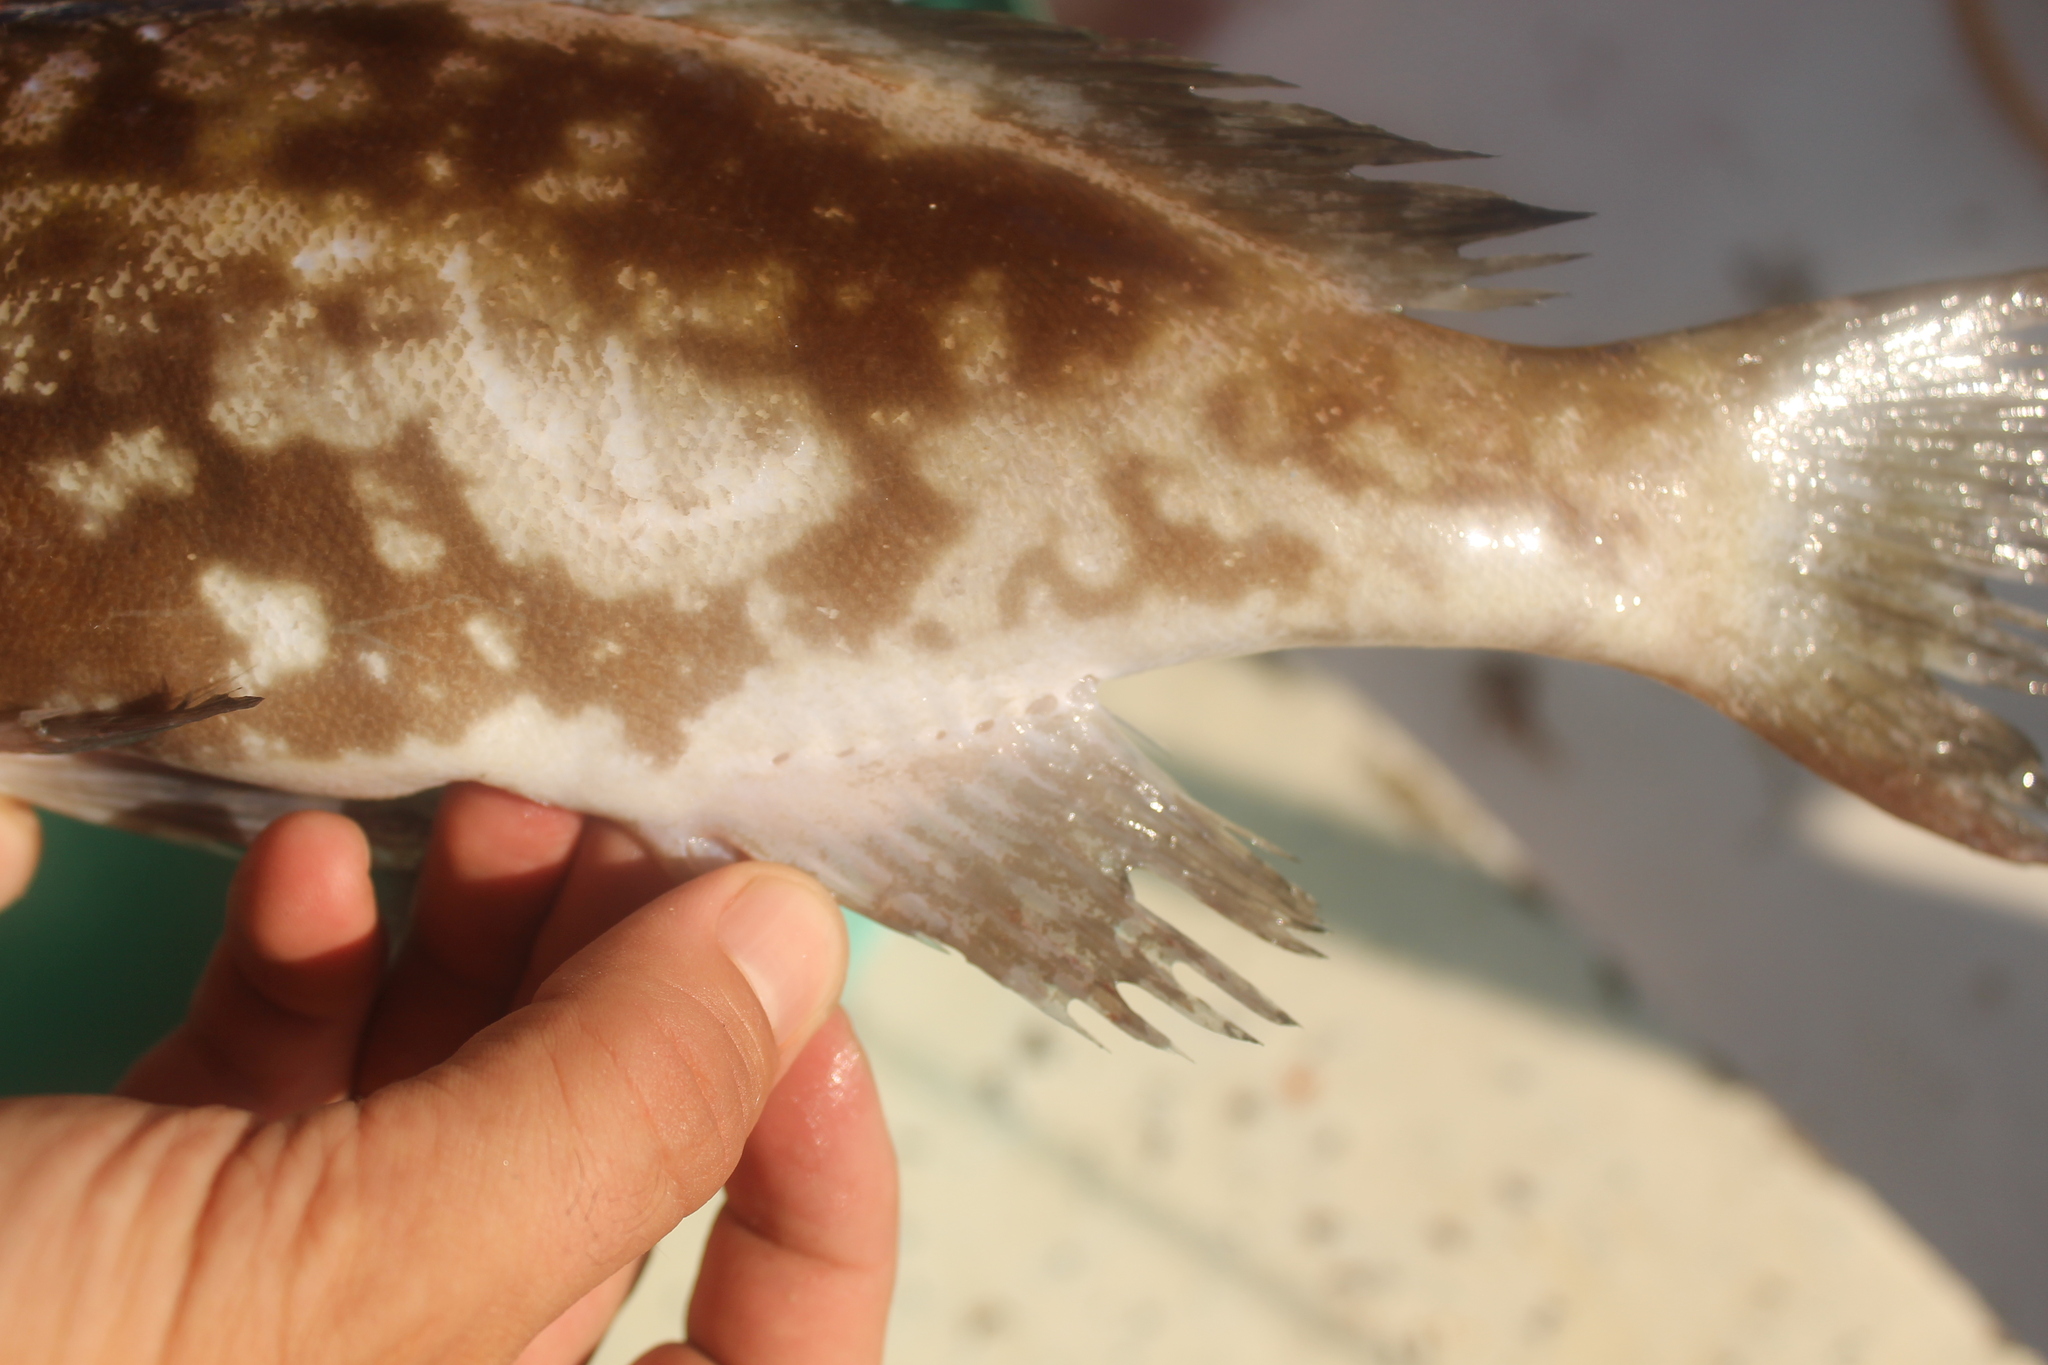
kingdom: Animalia
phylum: Chordata
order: Perciformes
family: Serranidae
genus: Epinephelus
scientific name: Epinephelus costae
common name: Goldblotch grouper
